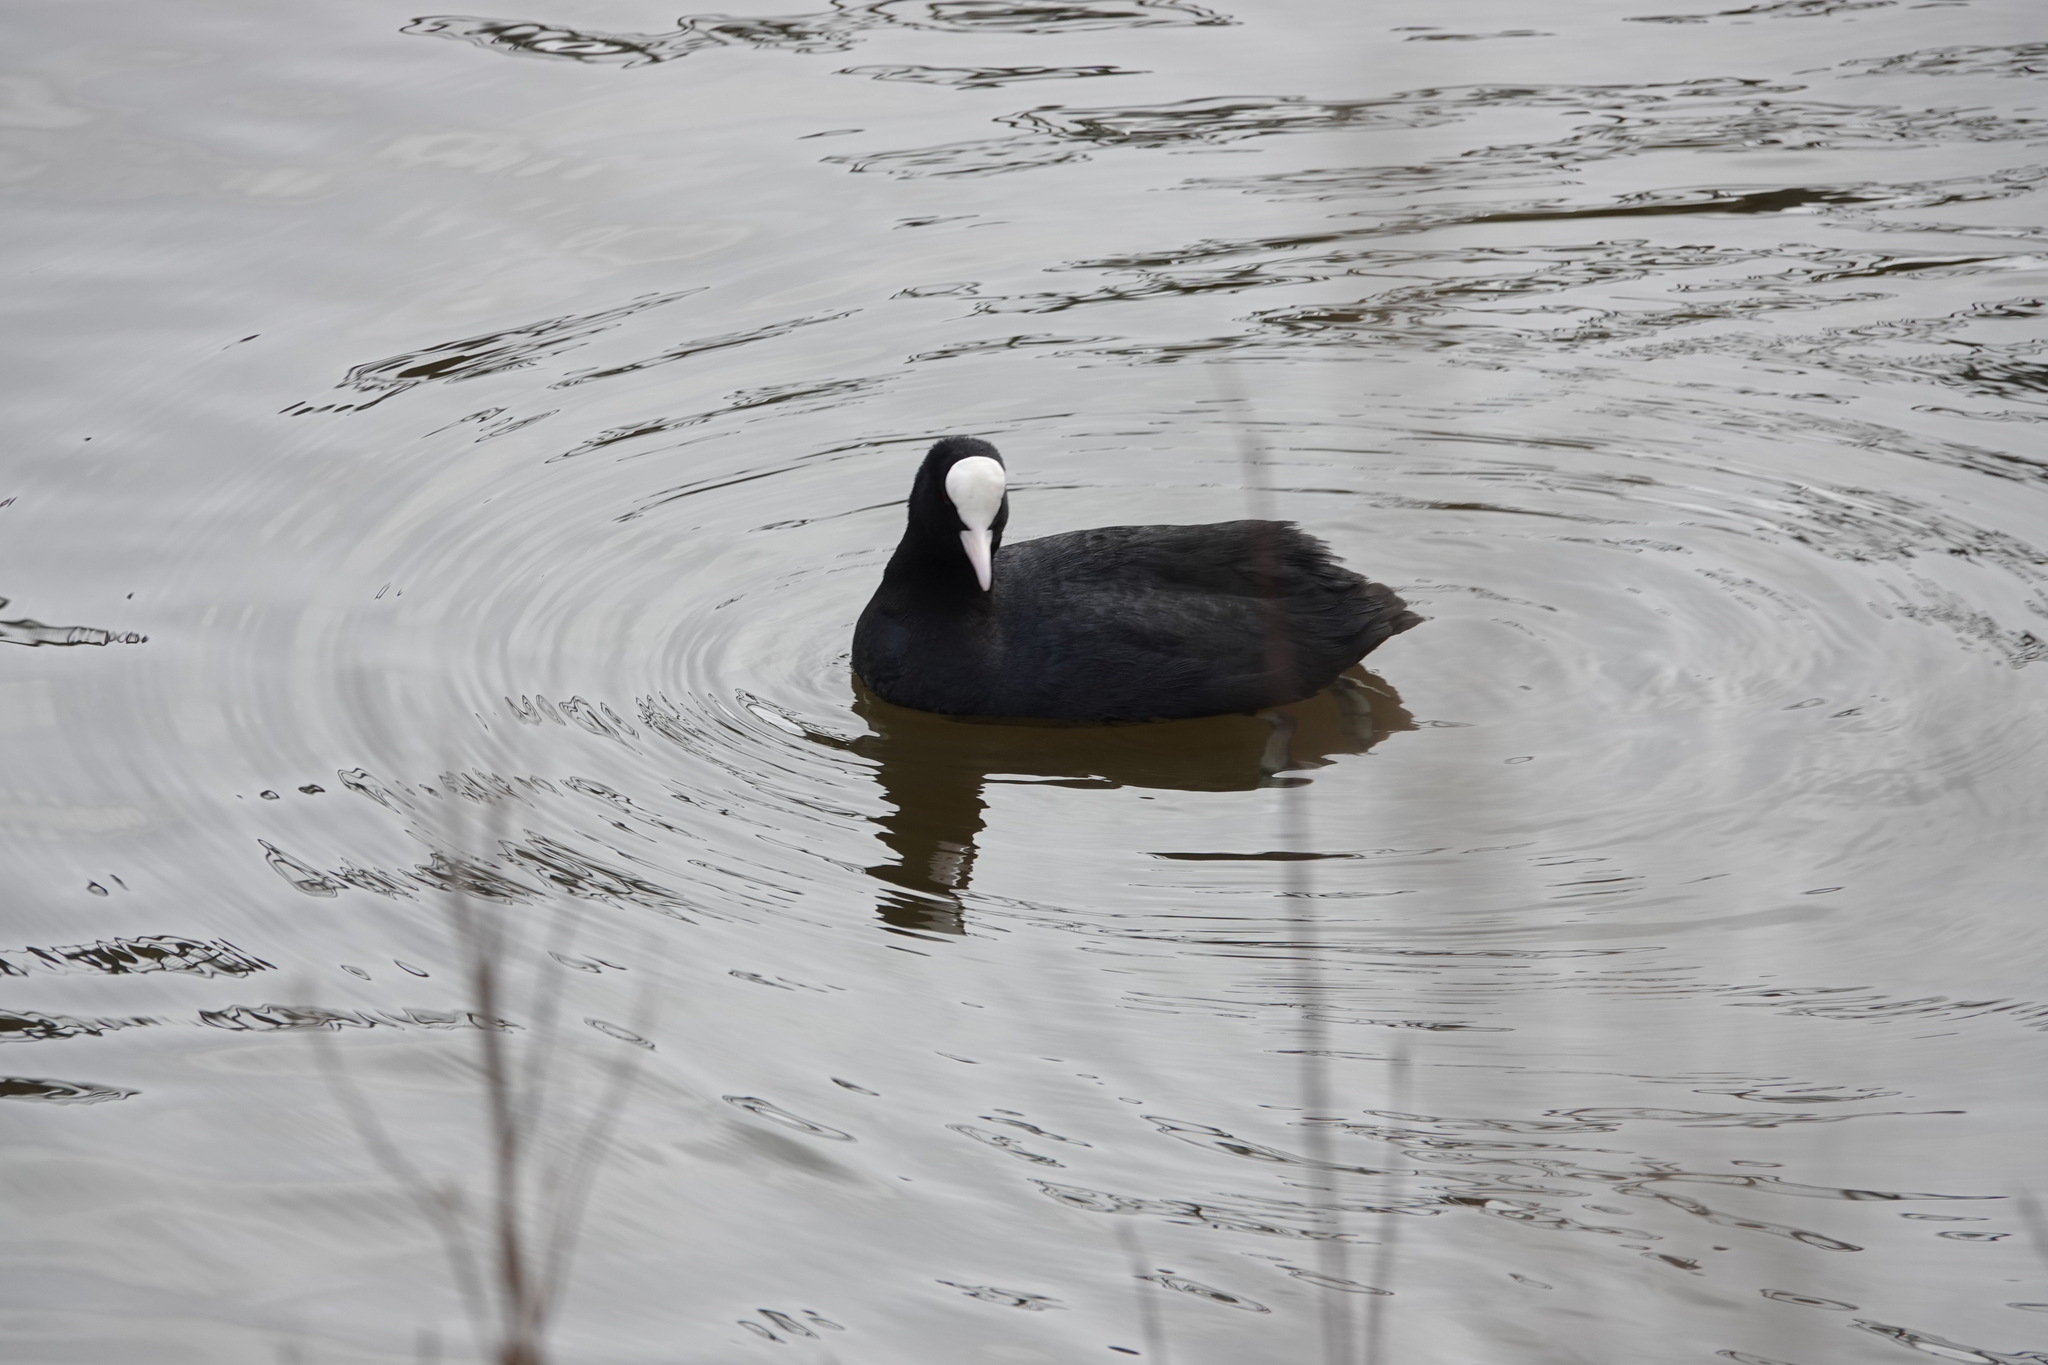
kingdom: Animalia
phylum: Chordata
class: Aves
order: Gruiformes
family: Rallidae
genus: Fulica
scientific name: Fulica atra
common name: Eurasian coot
